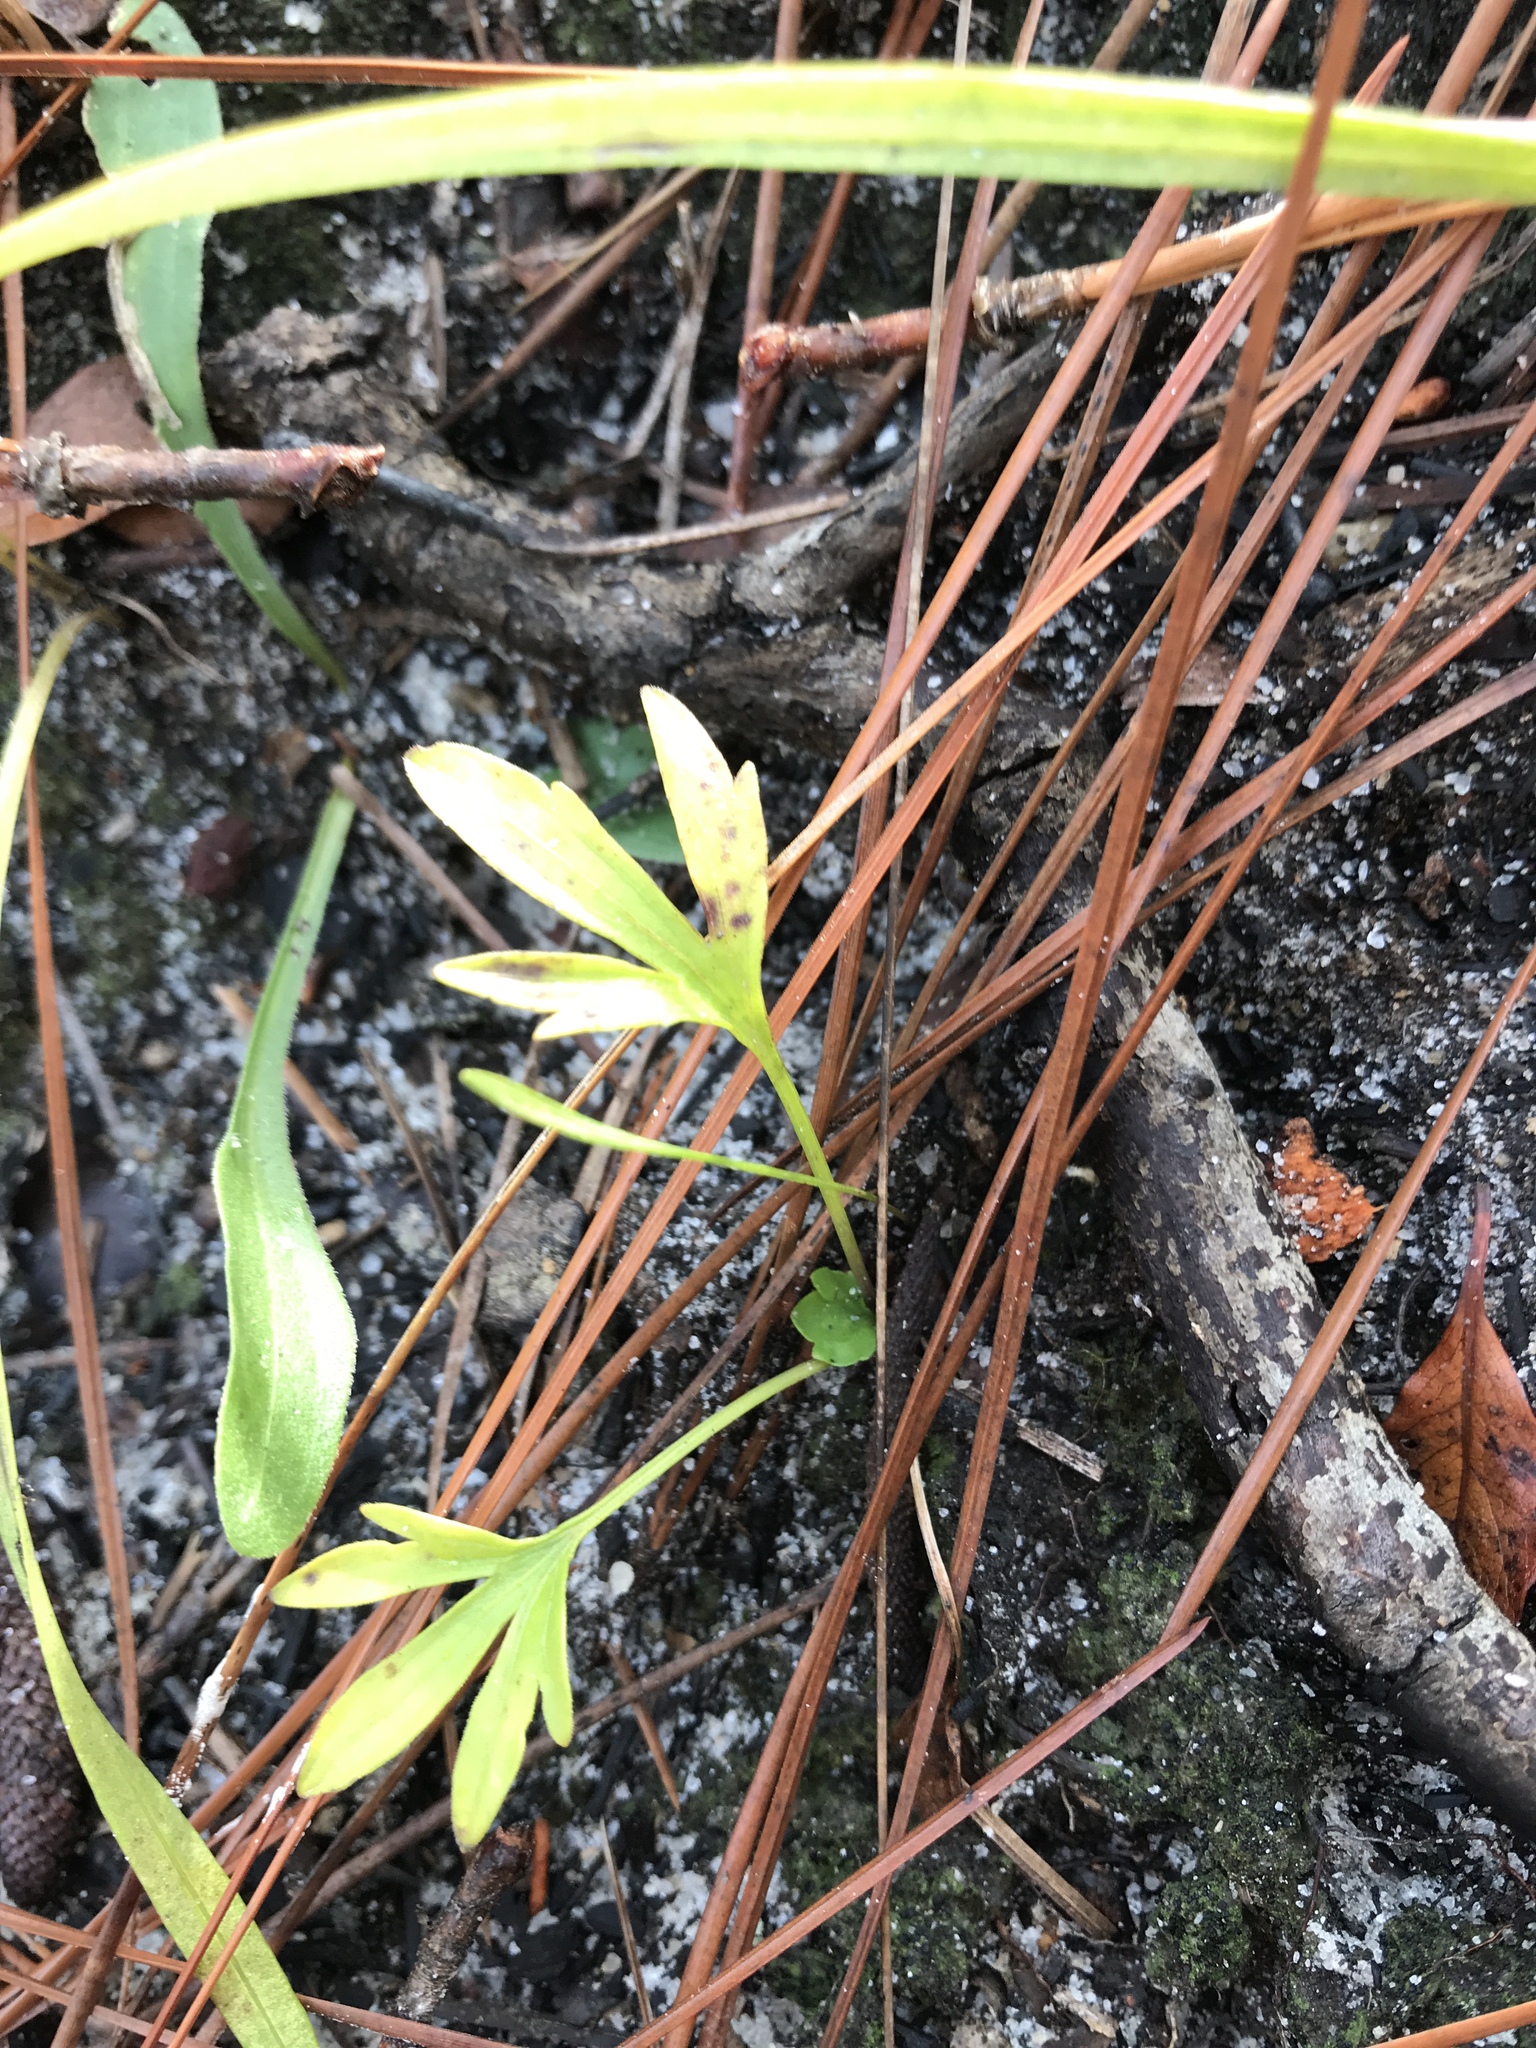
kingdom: Plantae
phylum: Tracheophyta
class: Magnoliopsida
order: Malpighiales
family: Violaceae
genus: Viola
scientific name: Viola pedata
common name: Pansy violet
